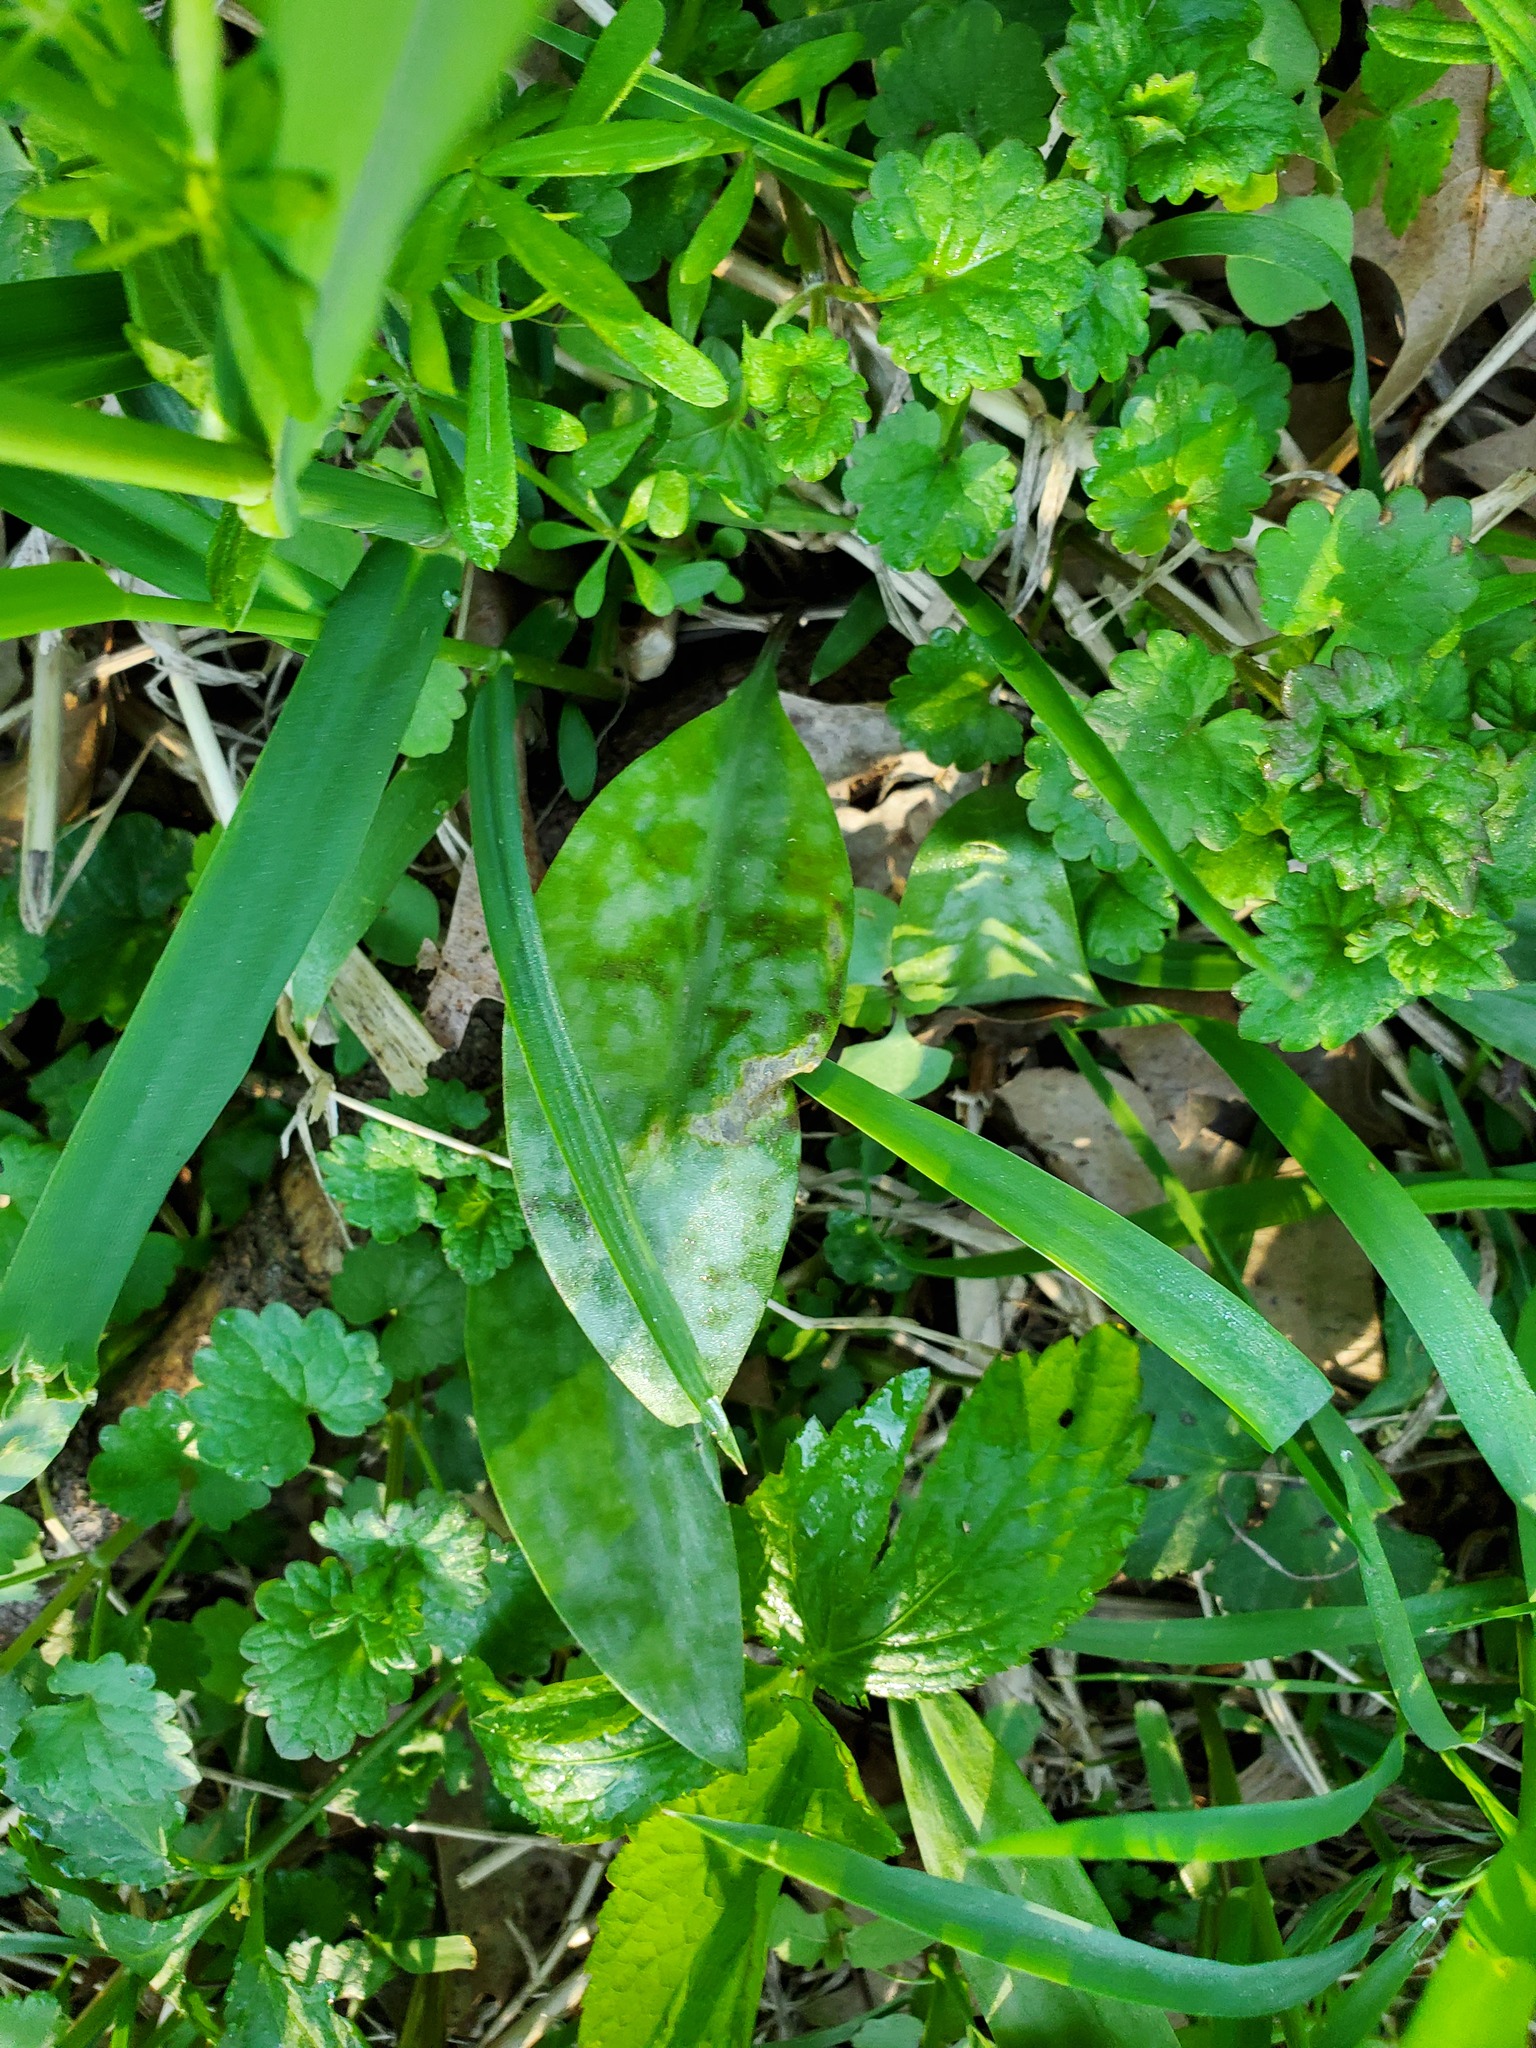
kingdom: Plantae
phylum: Tracheophyta
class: Liliopsida
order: Liliales
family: Liliaceae
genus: Erythronium
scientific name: Erythronium albidum
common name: White trout-lily
